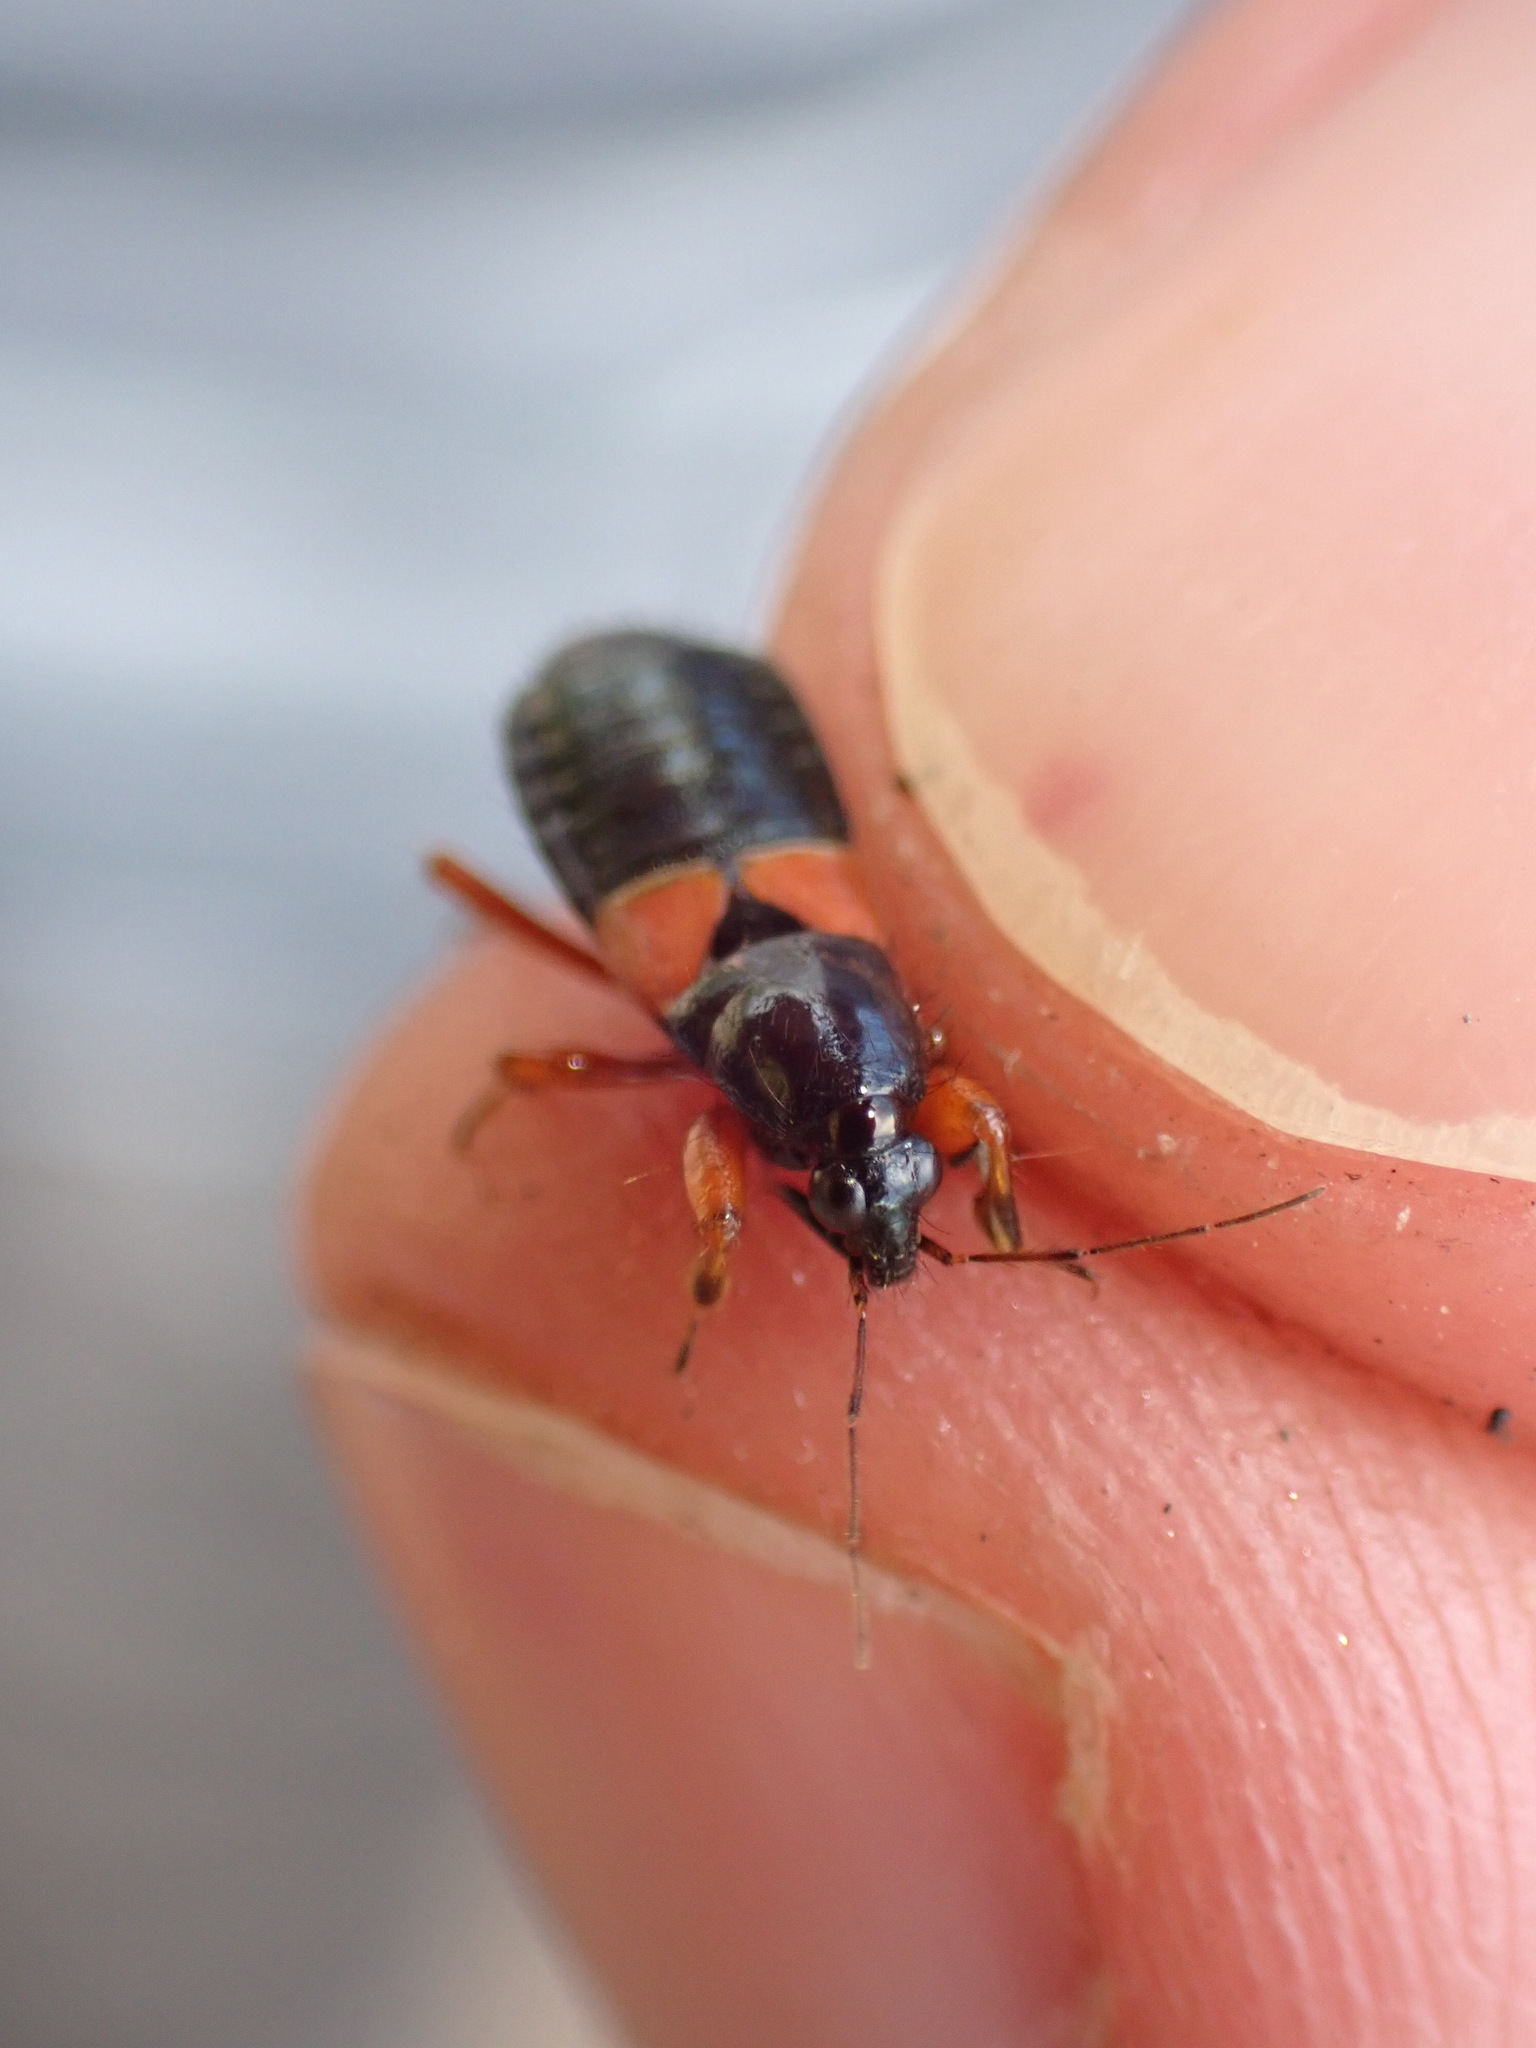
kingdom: Animalia
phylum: Arthropoda
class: Insecta
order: Hemiptera
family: Nabidae
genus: Prostemma
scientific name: Prostemma guttula
